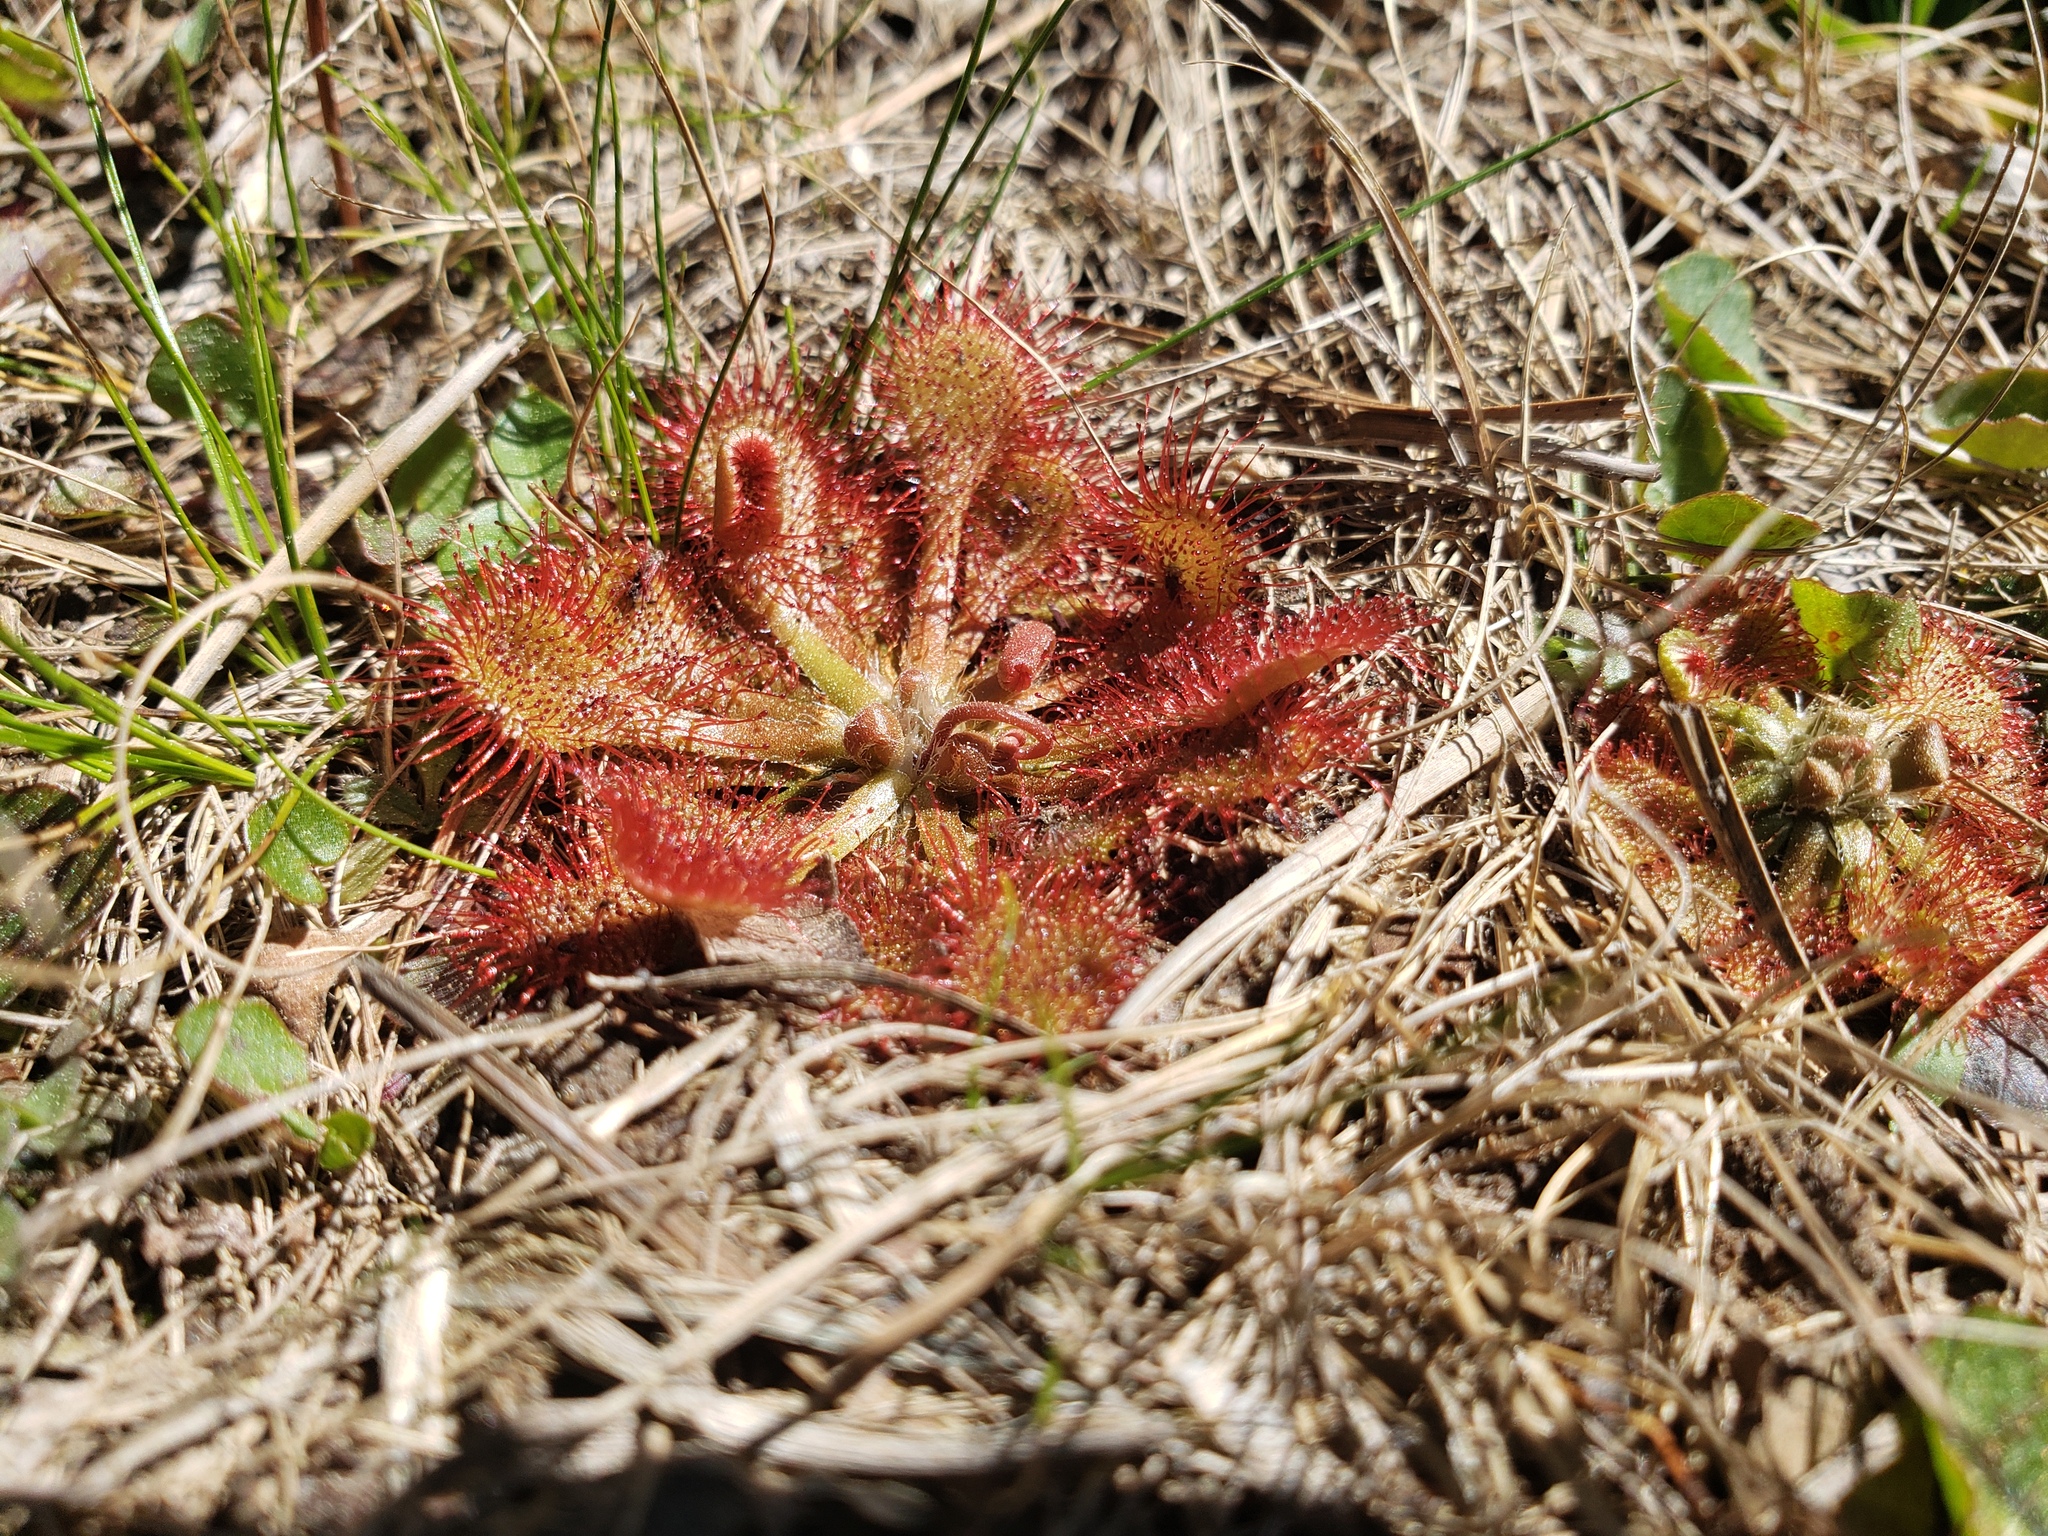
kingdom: Plantae
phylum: Tracheophyta
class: Magnoliopsida
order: Caryophyllales
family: Droseraceae
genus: Drosera
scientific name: Drosera capillaris
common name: Pink sundew
